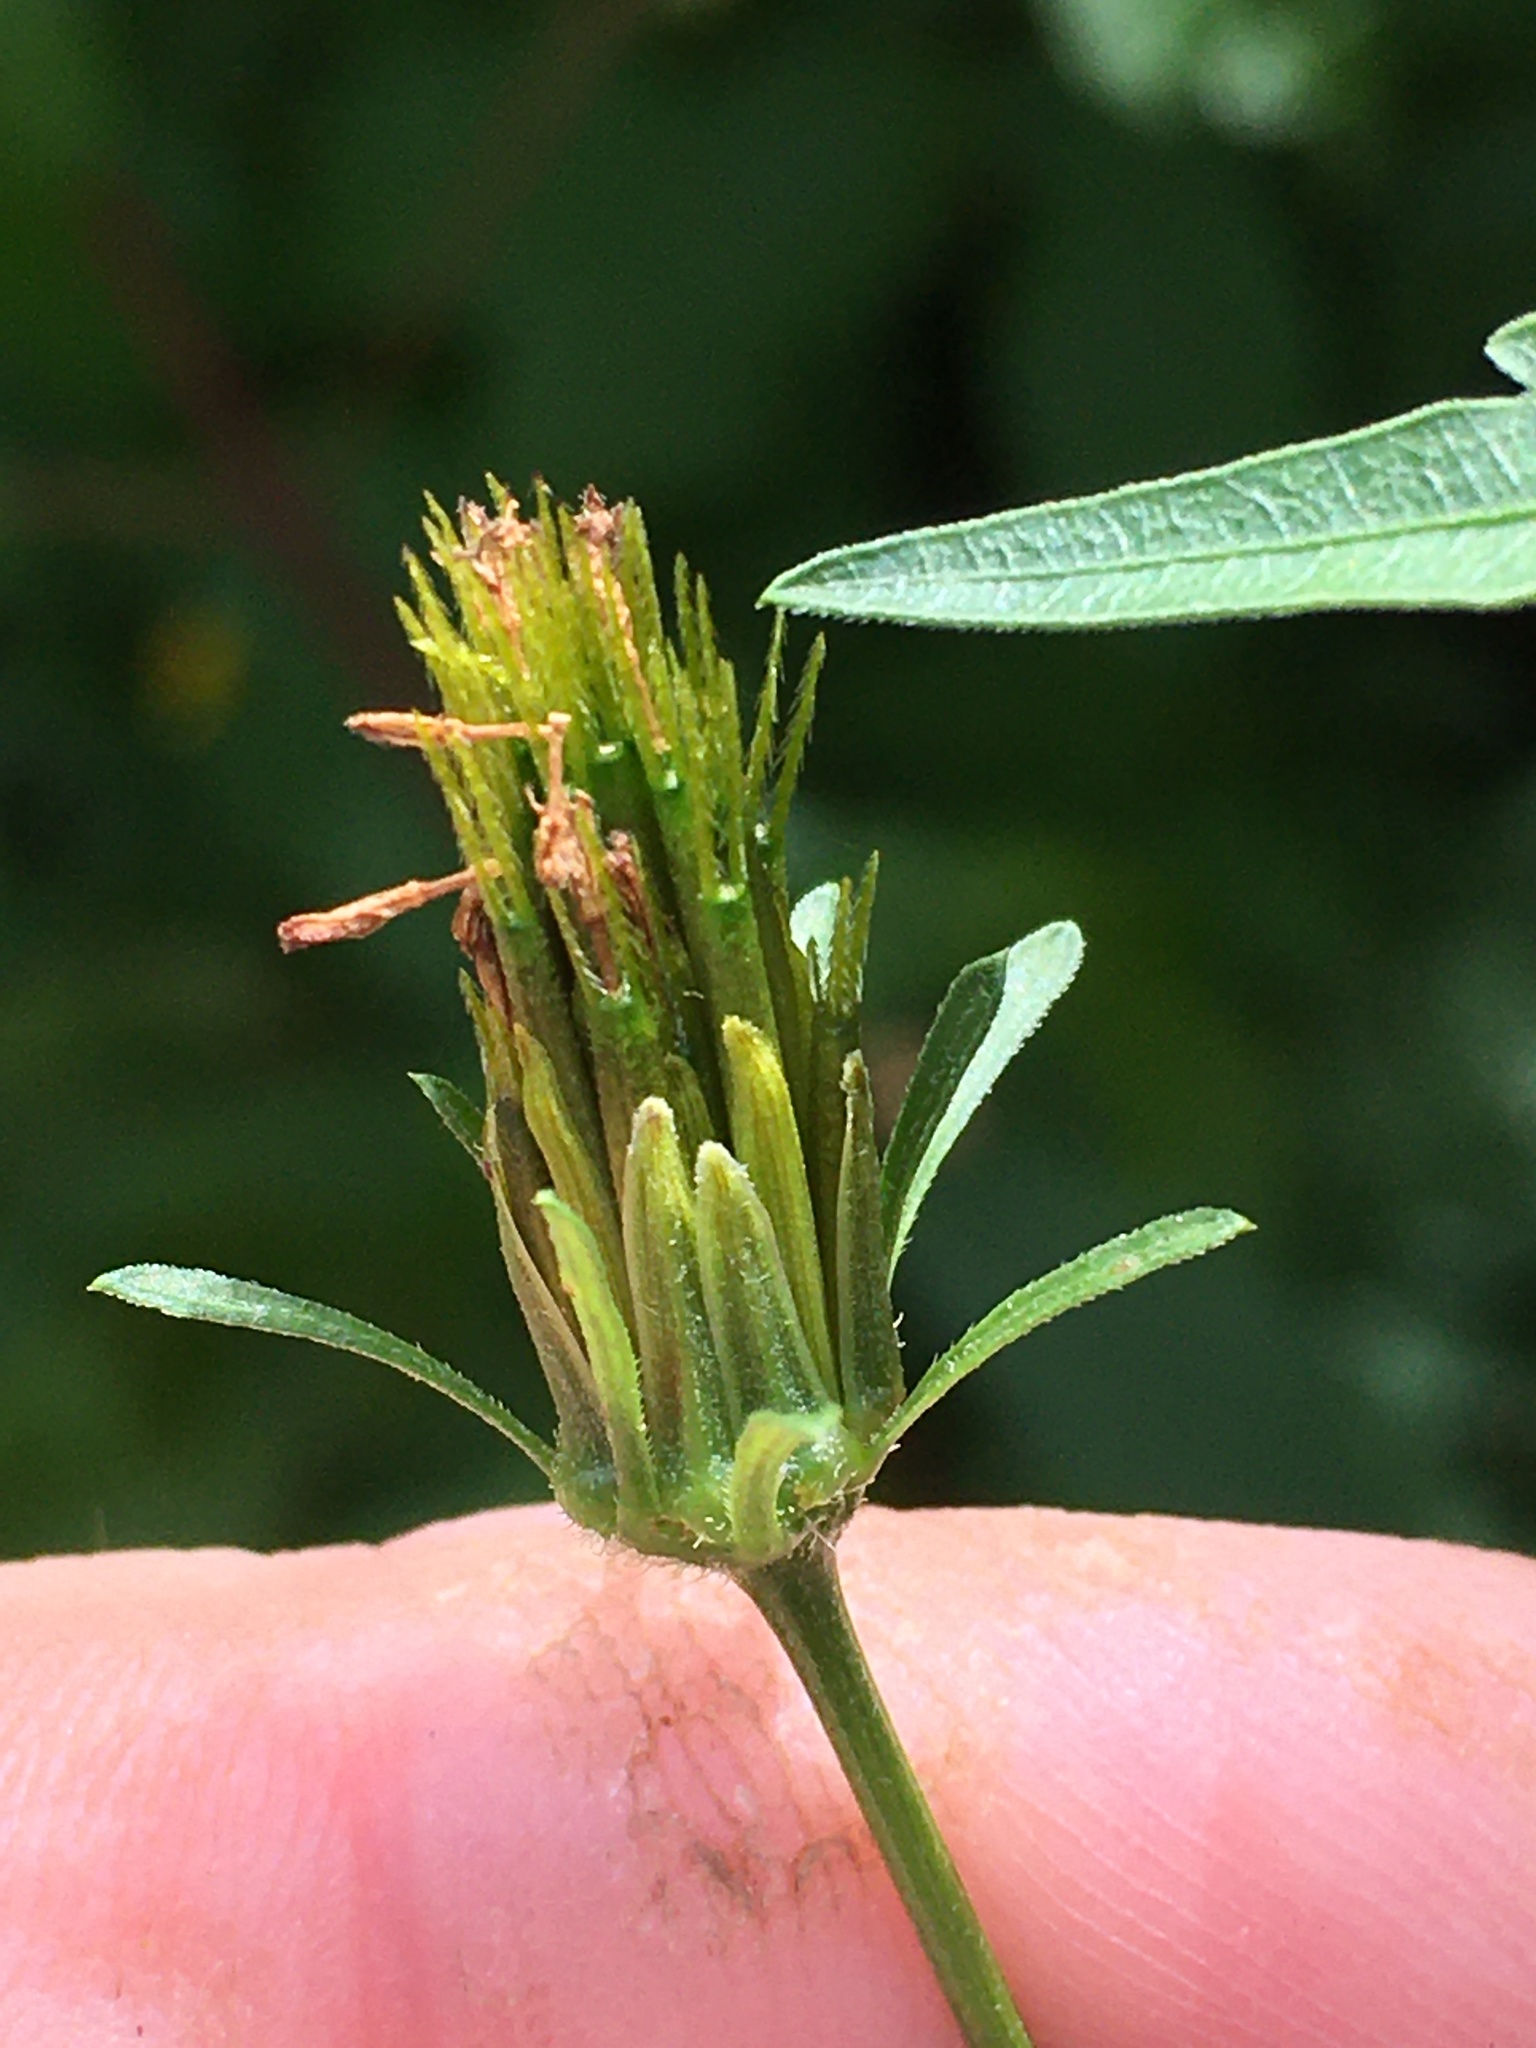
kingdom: Plantae
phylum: Tracheophyta
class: Magnoliopsida
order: Asterales
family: Asteraceae
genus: Bidens
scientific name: Bidens bipinnata
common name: Spanish-needles
